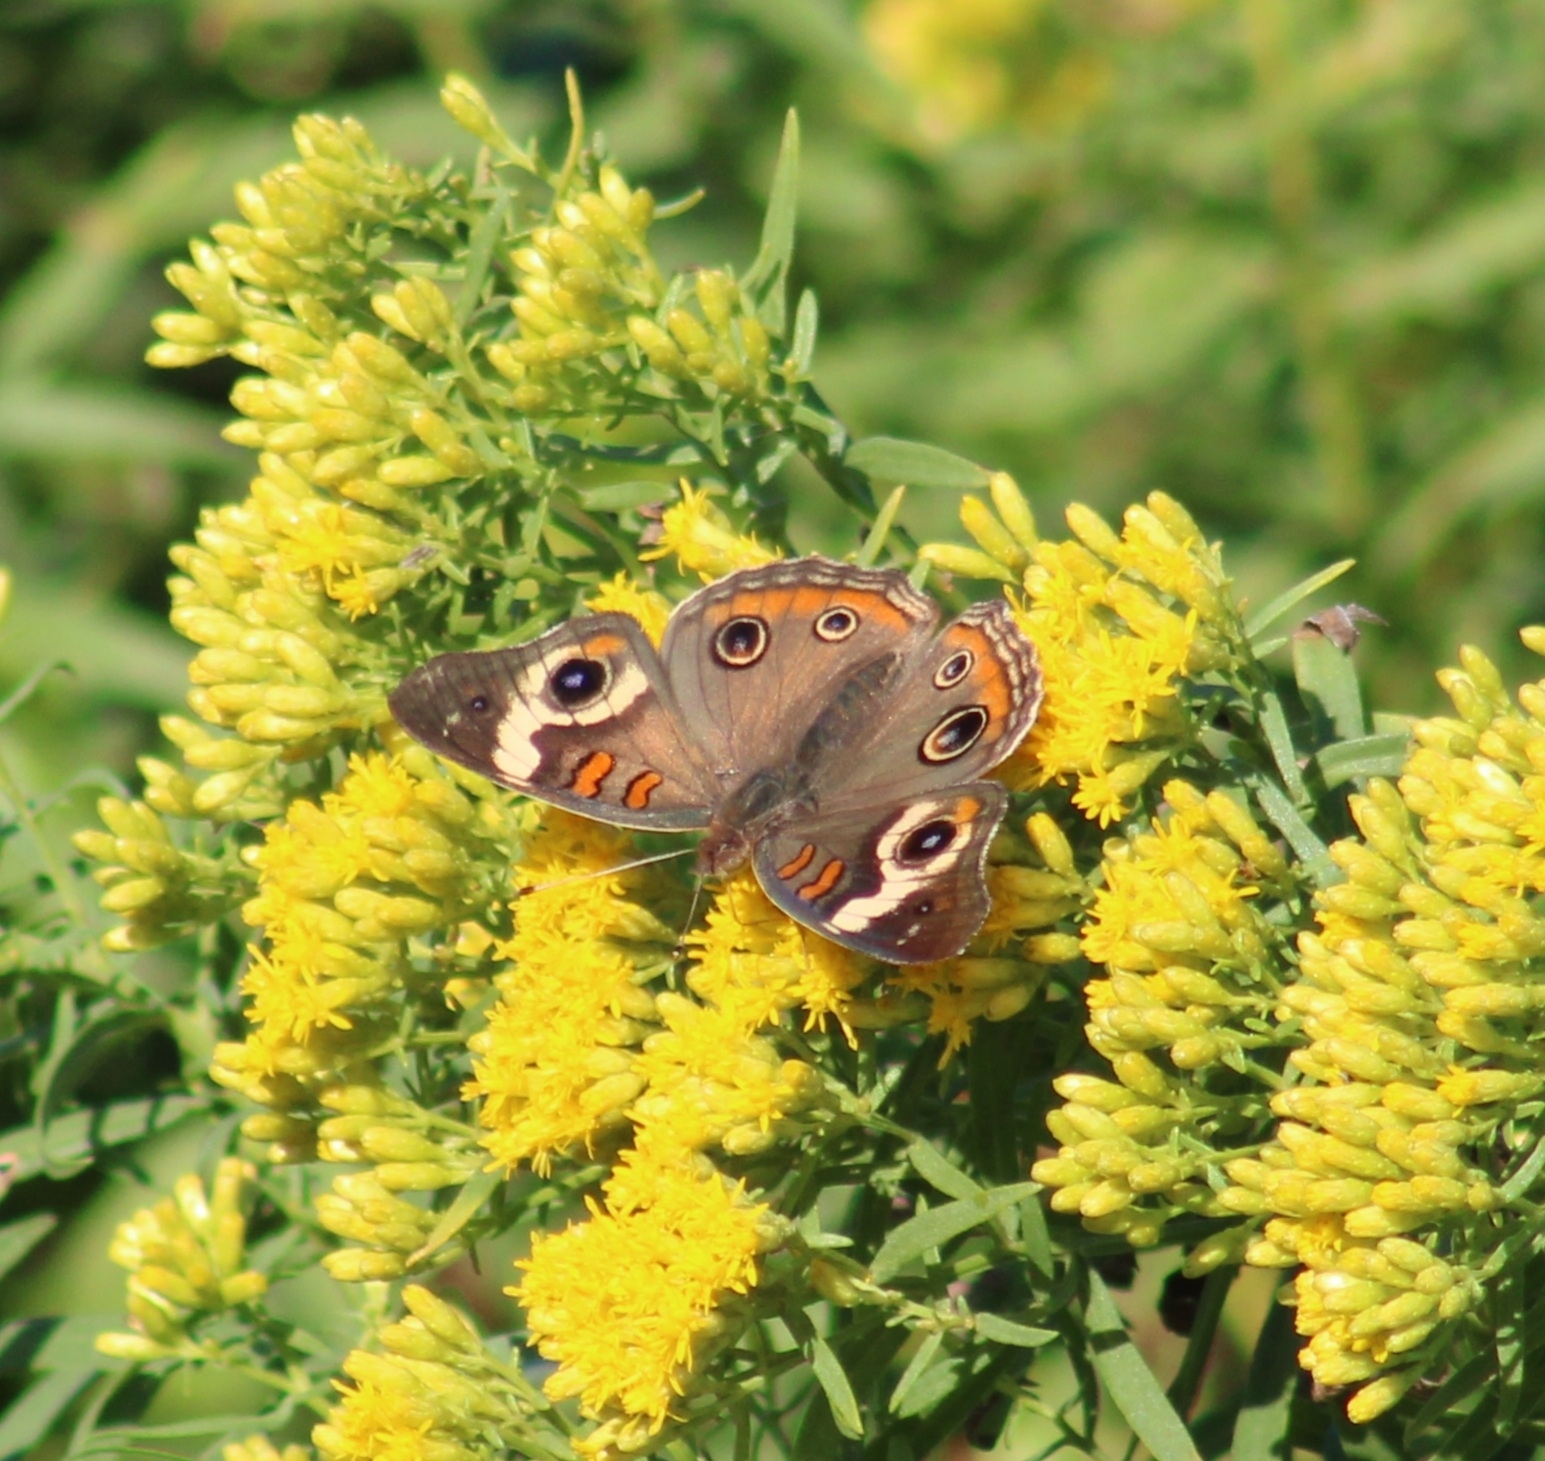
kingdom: Animalia
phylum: Arthropoda
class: Insecta
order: Lepidoptera
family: Nymphalidae
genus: Junonia
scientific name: Junonia coenia
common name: Common buckeye
